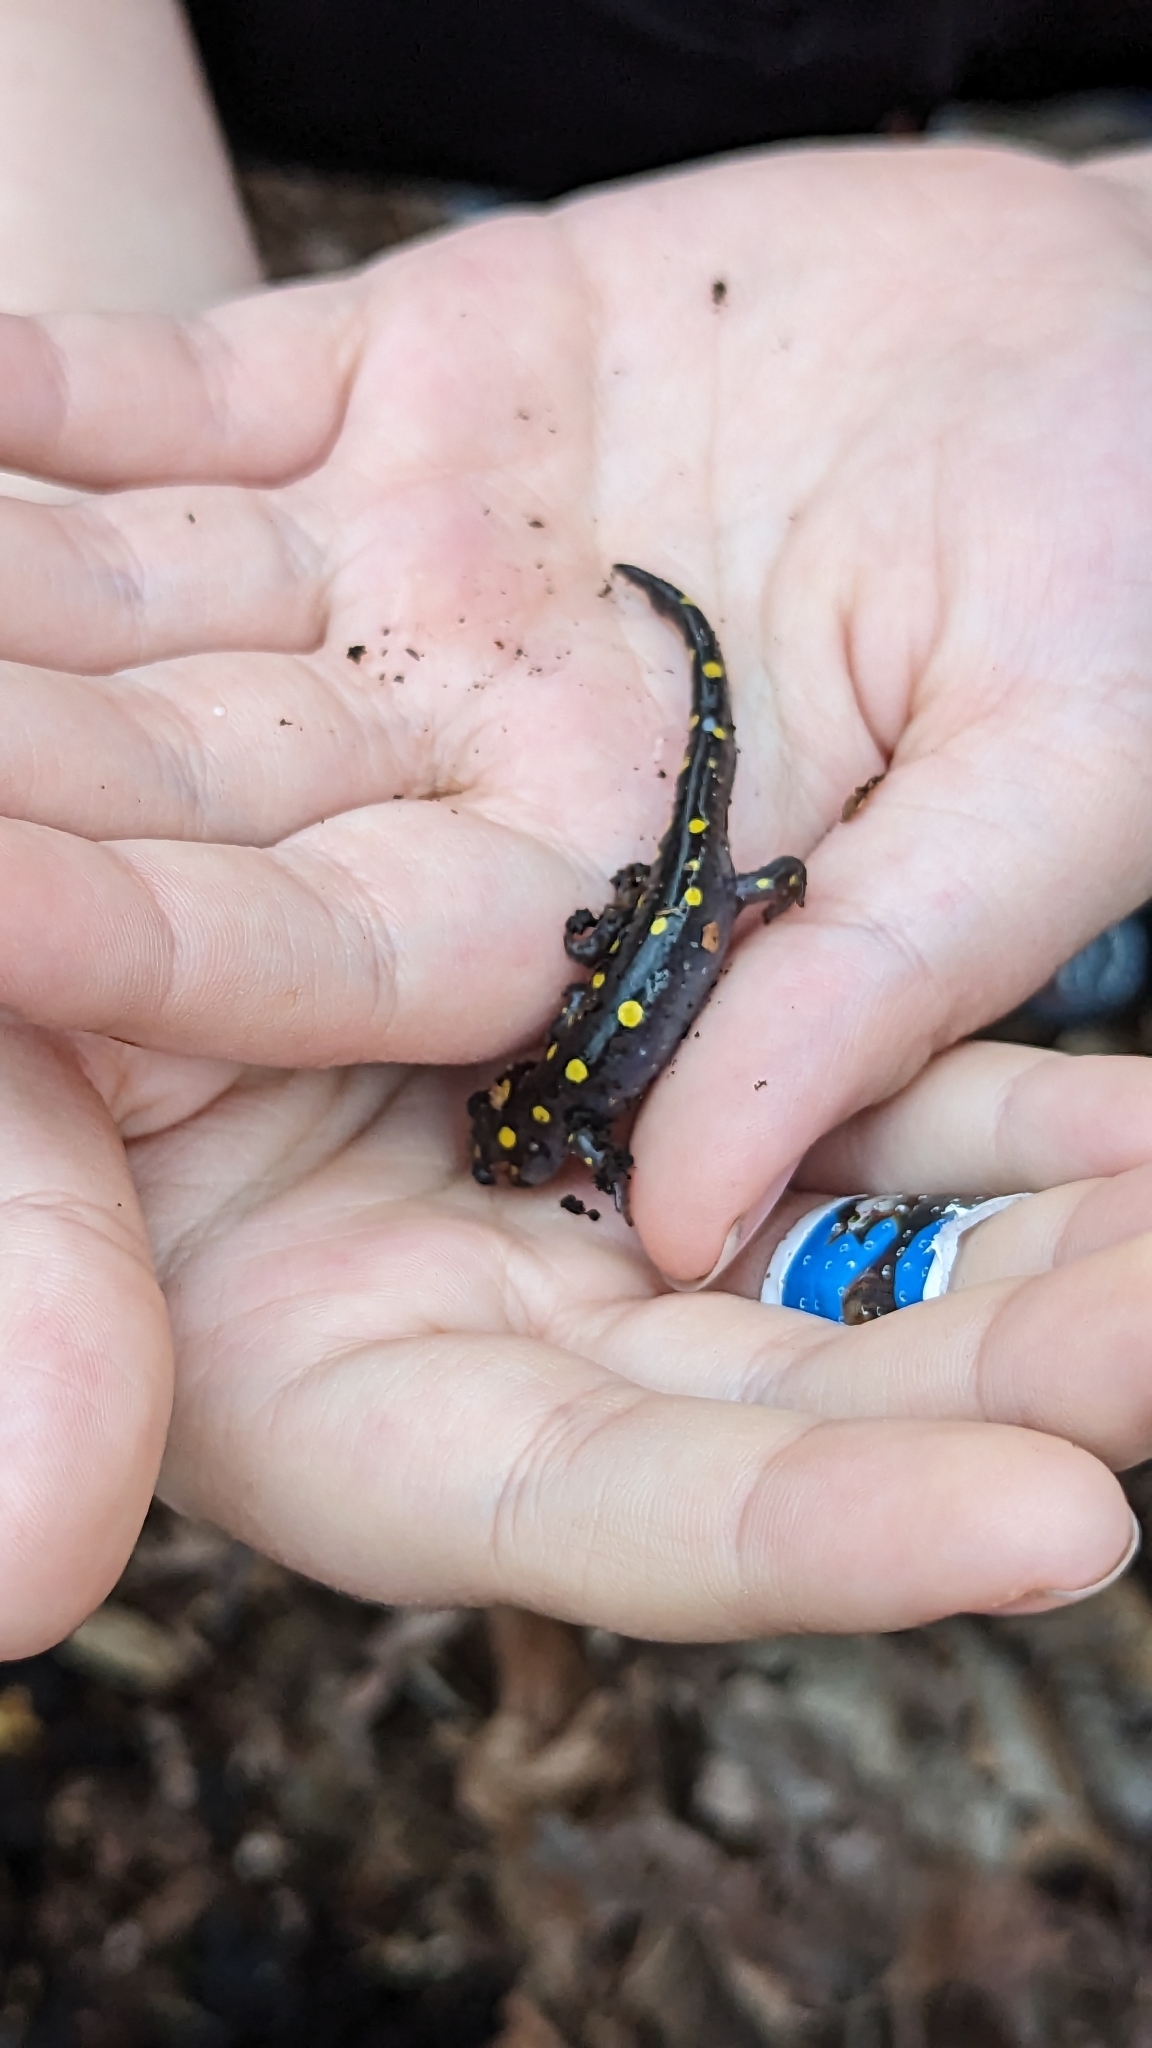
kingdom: Animalia
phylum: Chordata
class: Amphibia
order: Caudata
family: Ambystomatidae
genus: Ambystoma
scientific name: Ambystoma maculatum
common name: Spotted salamander
